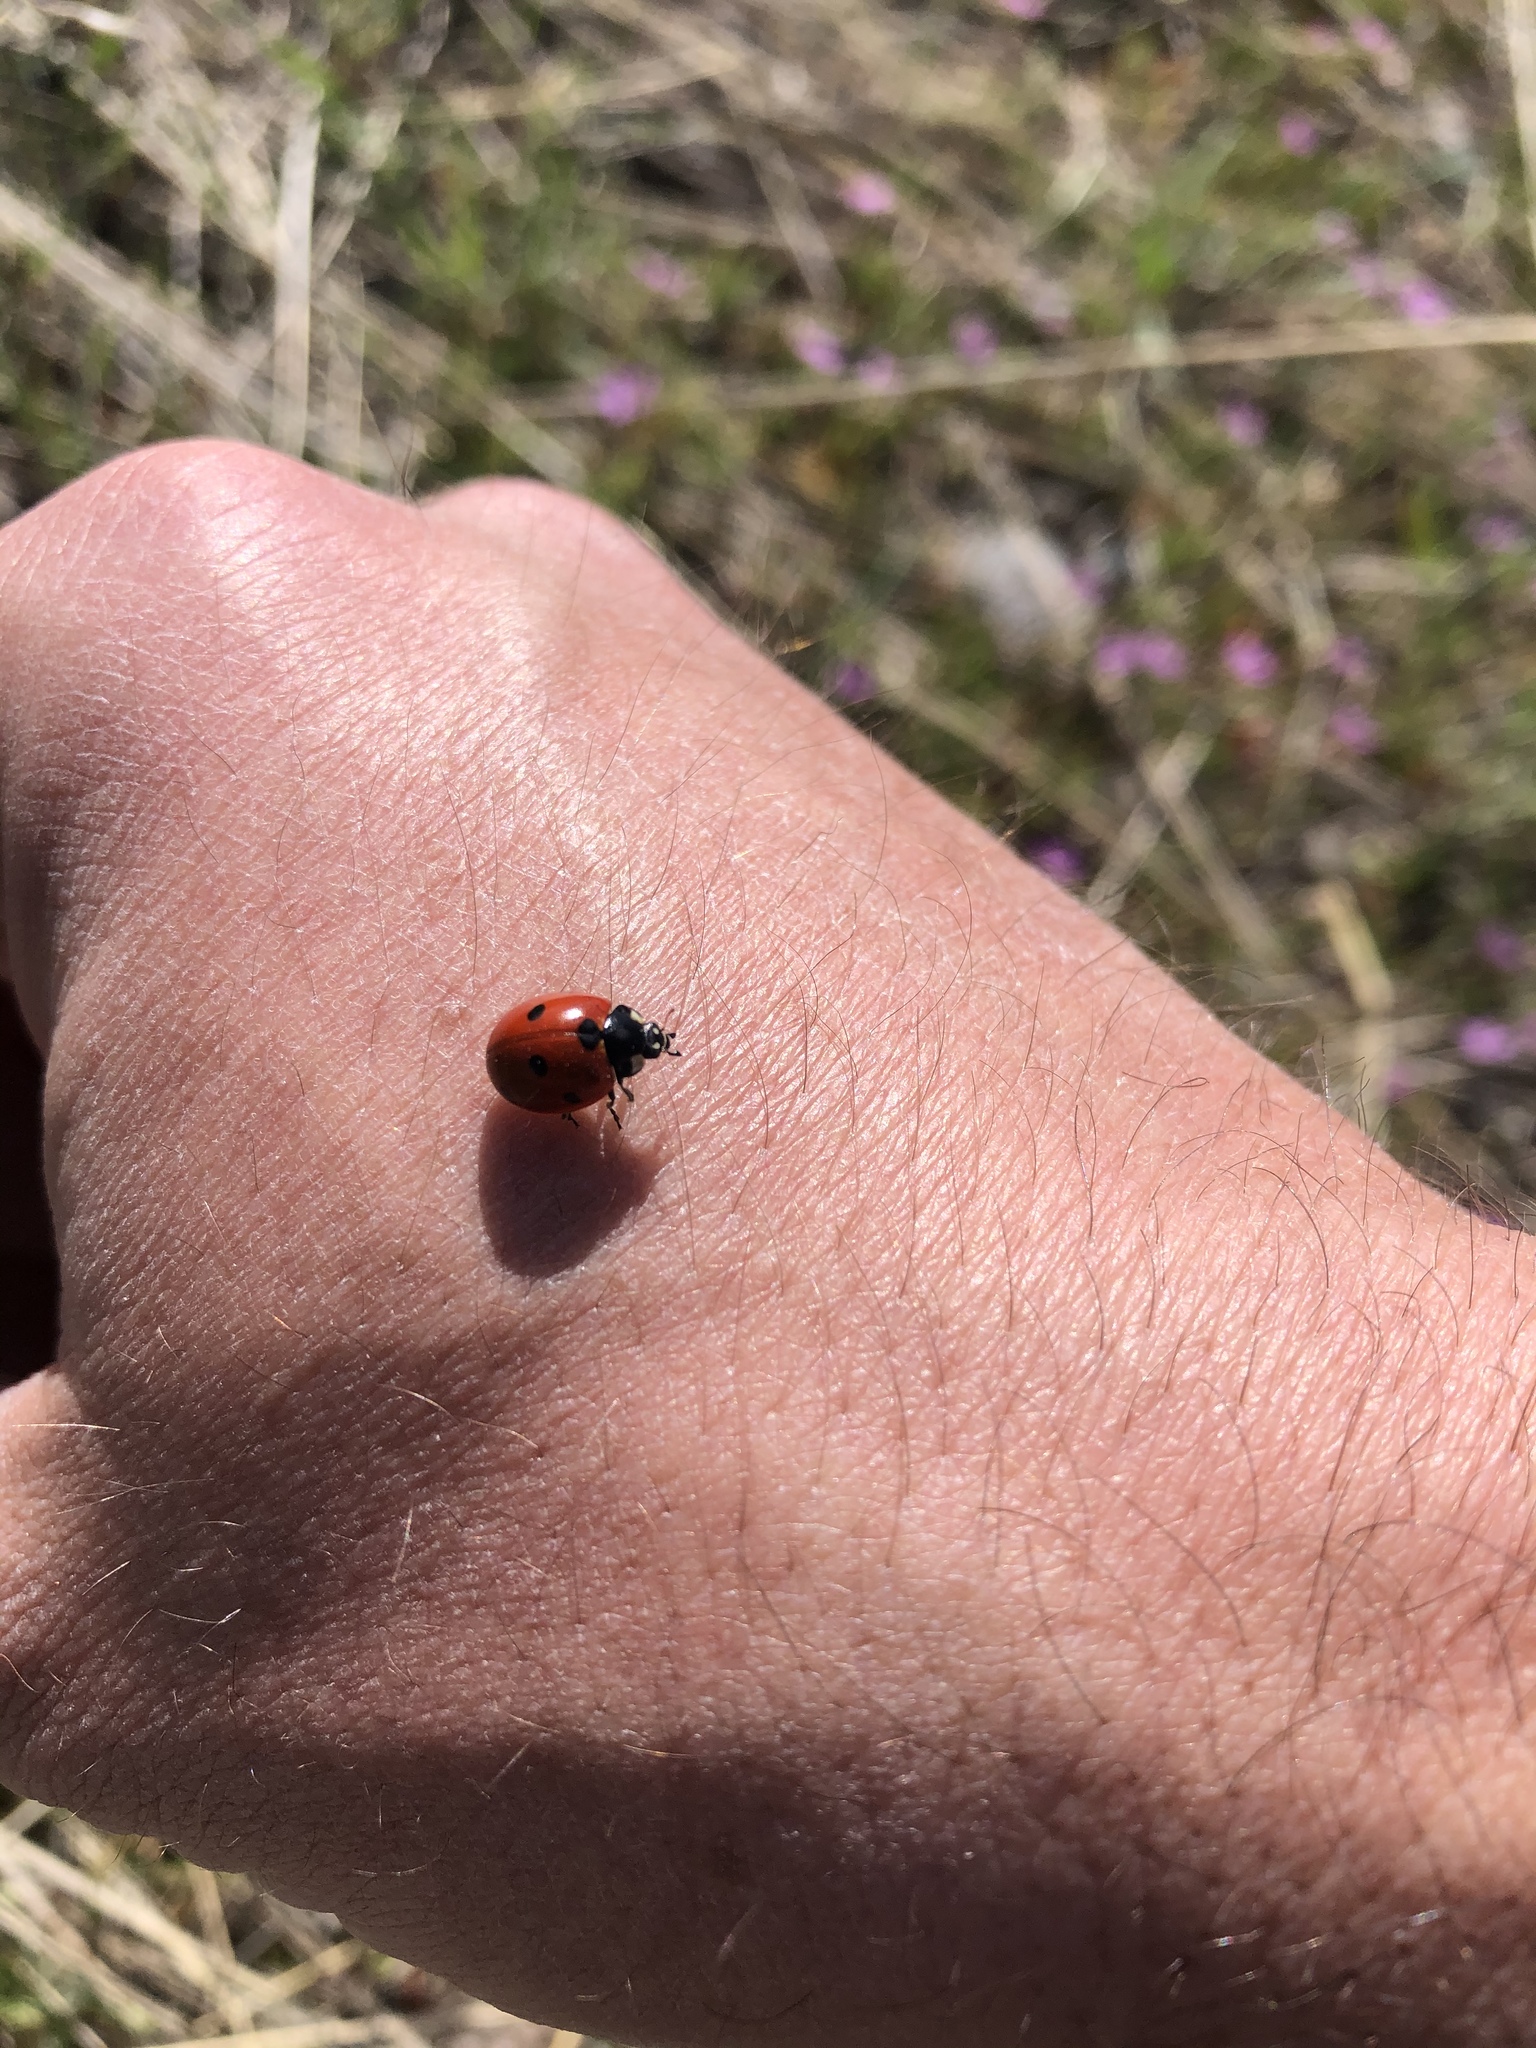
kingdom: Animalia
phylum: Arthropoda
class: Insecta
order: Coleoptera
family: Coccinellidae
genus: Coccinella
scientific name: Coccinella septempunctata
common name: Sevenspotted lady beetle
